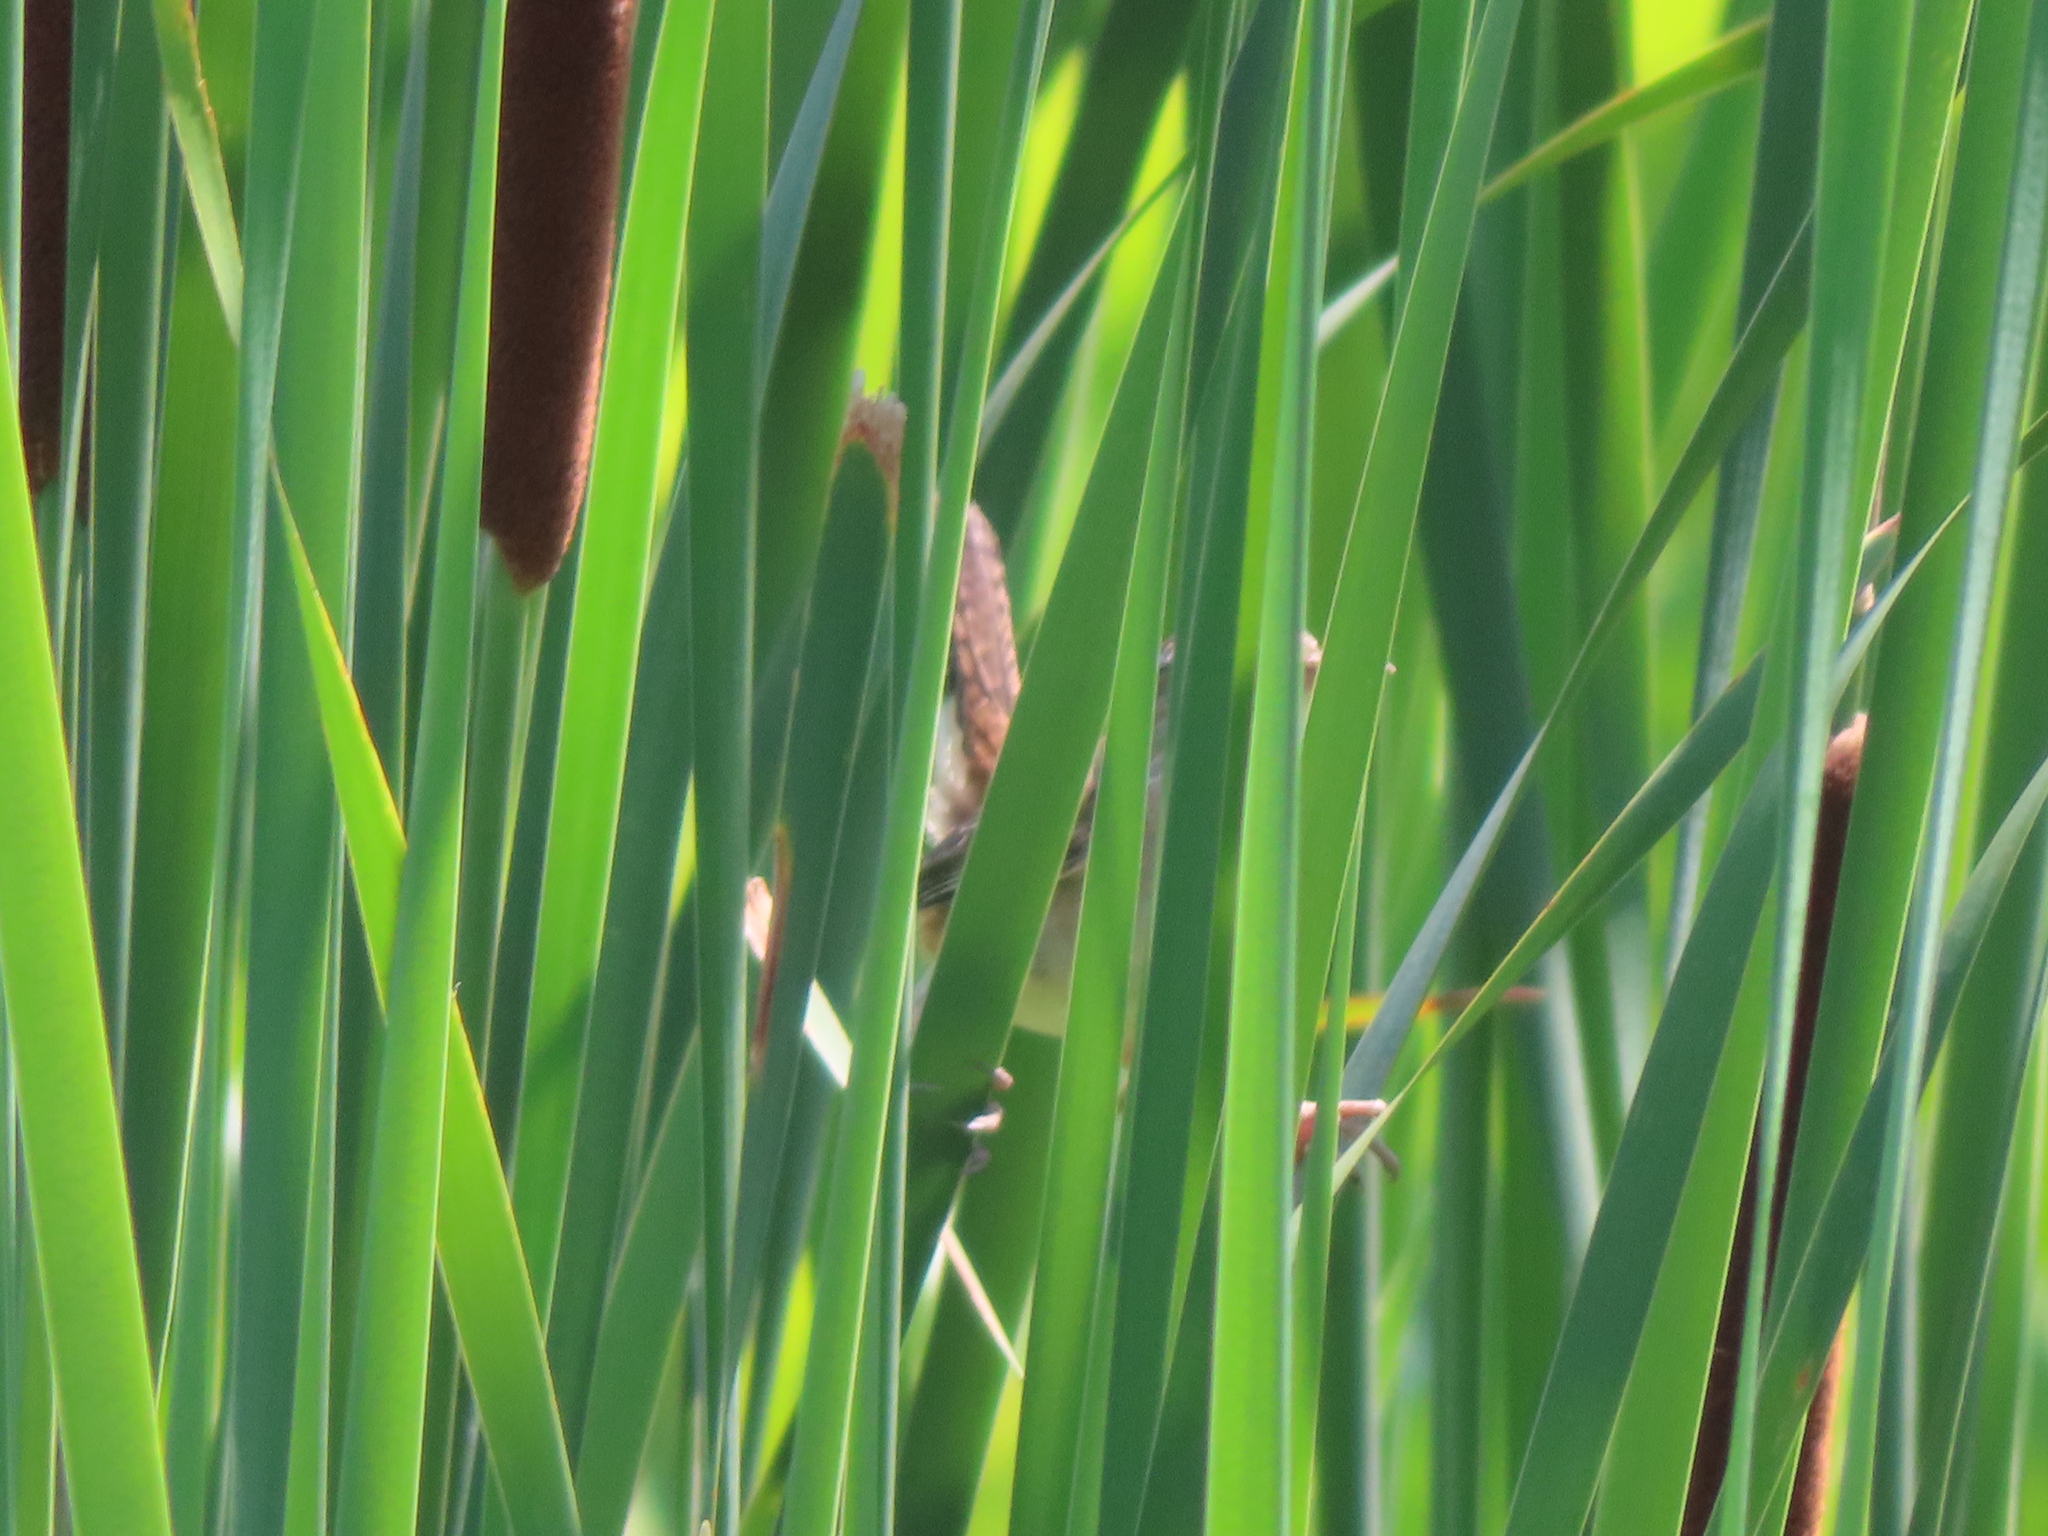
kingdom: Animalia
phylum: Chordata
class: Aves
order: Passeriformes
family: Troglodytidae
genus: Cistothorus
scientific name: Cistothorus palustris
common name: Marsh wren
